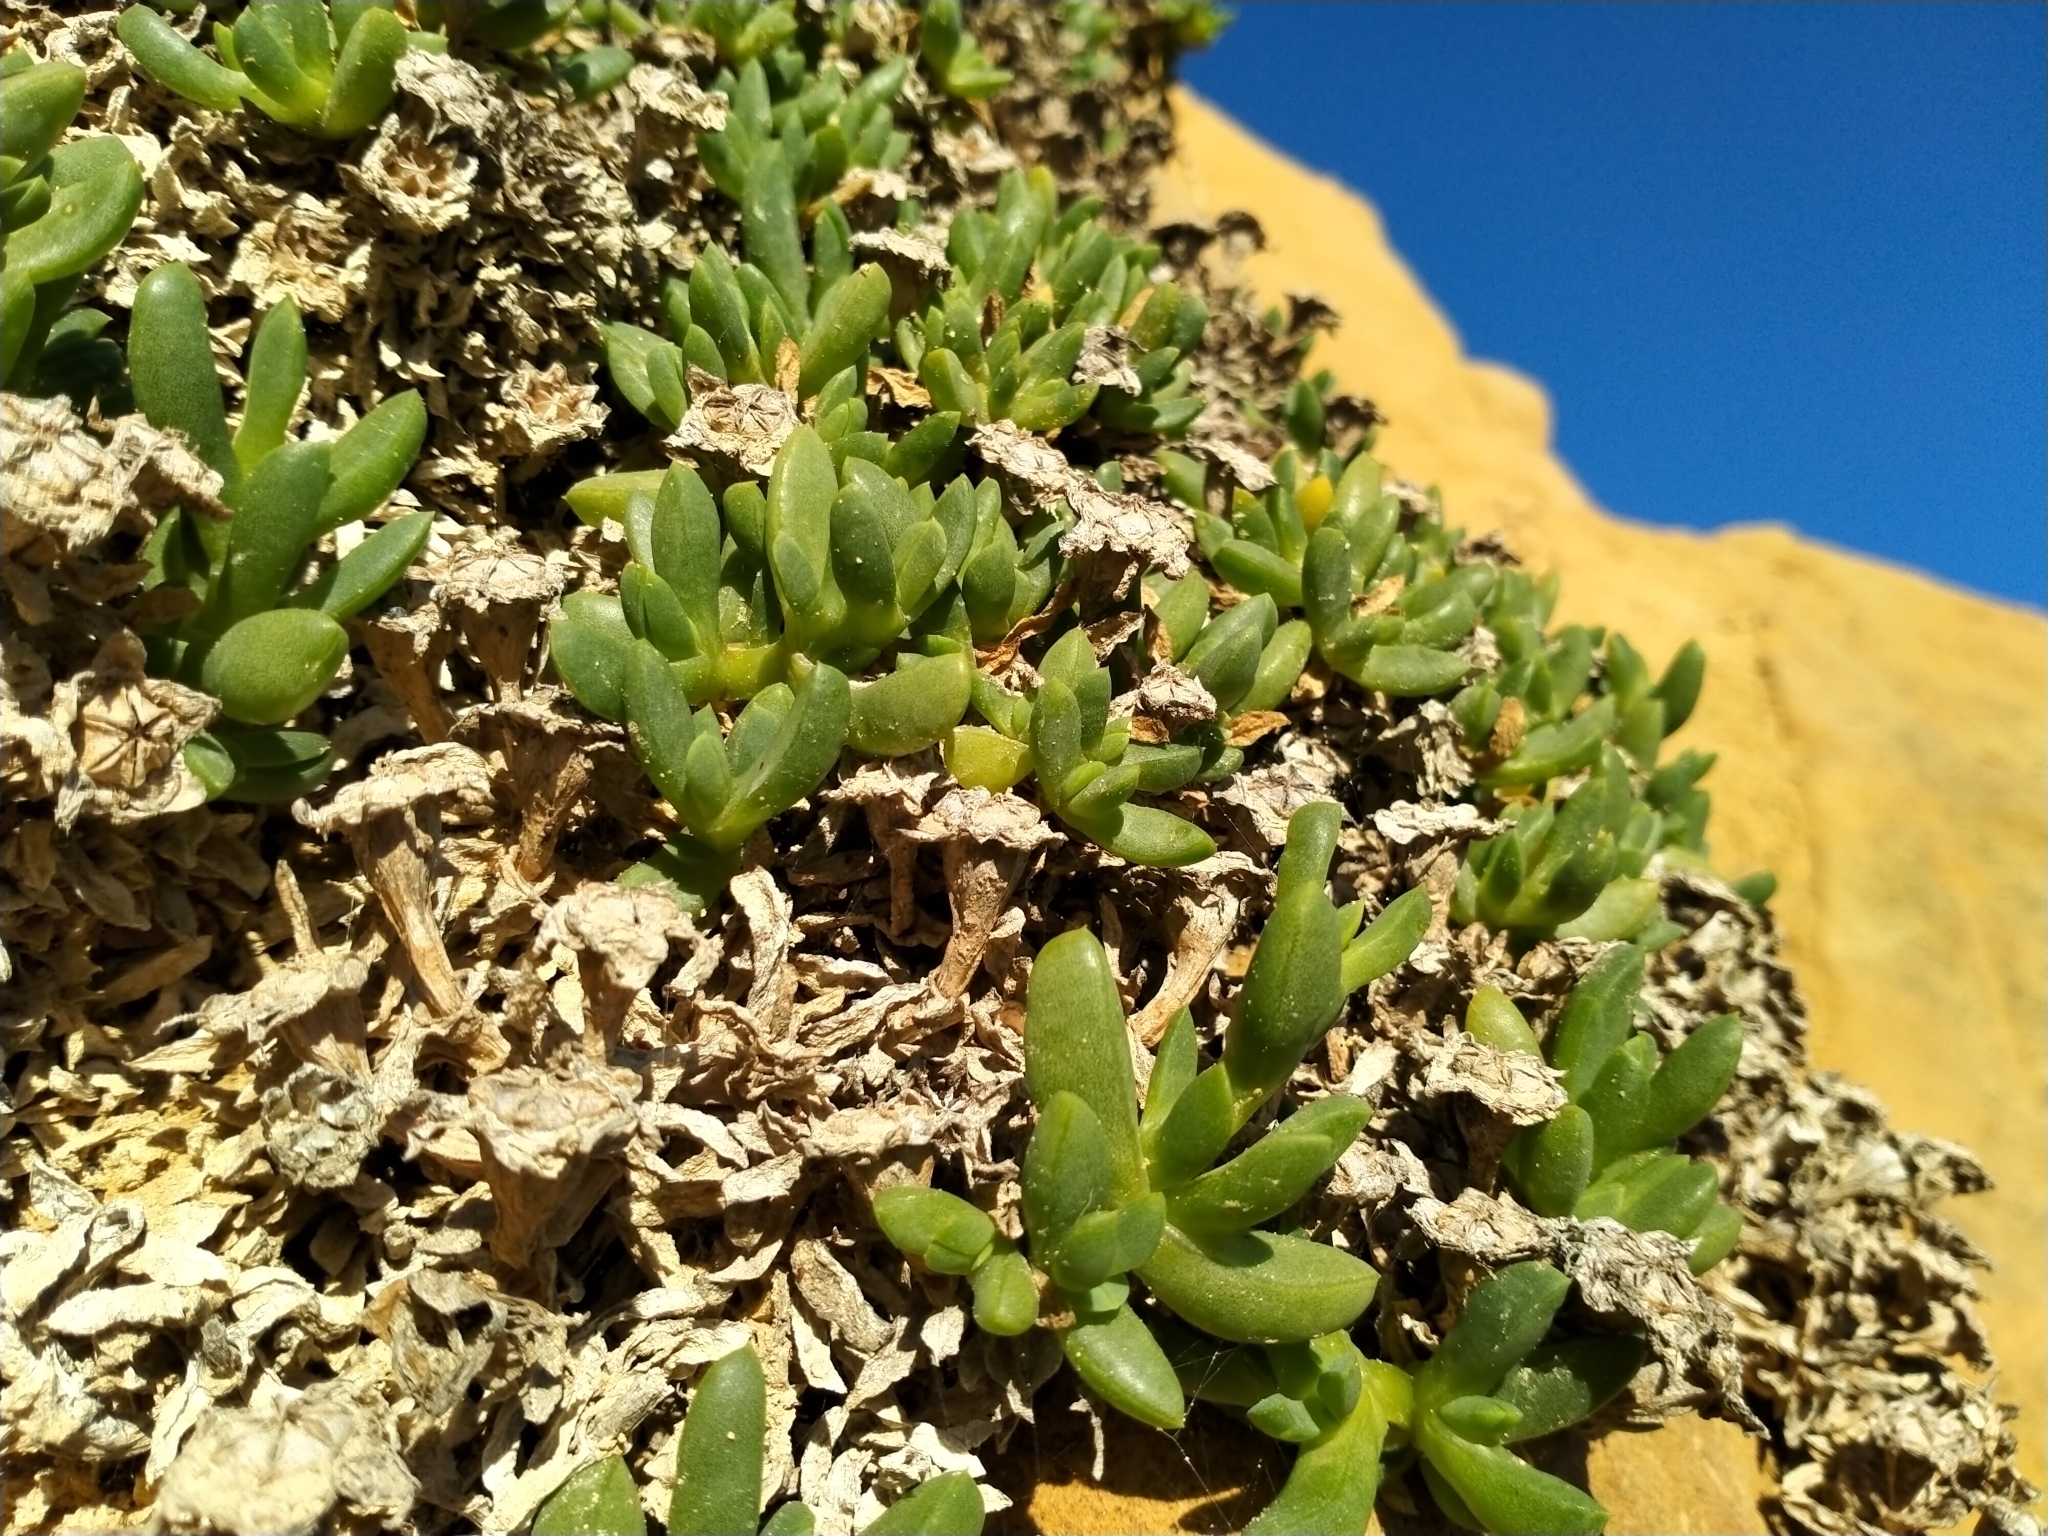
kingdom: Plantae
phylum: Tracheophyta
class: Magnoliopsida
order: Caryophyllales
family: Aizoaceae
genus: Disphyma
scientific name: Disphyma australe
